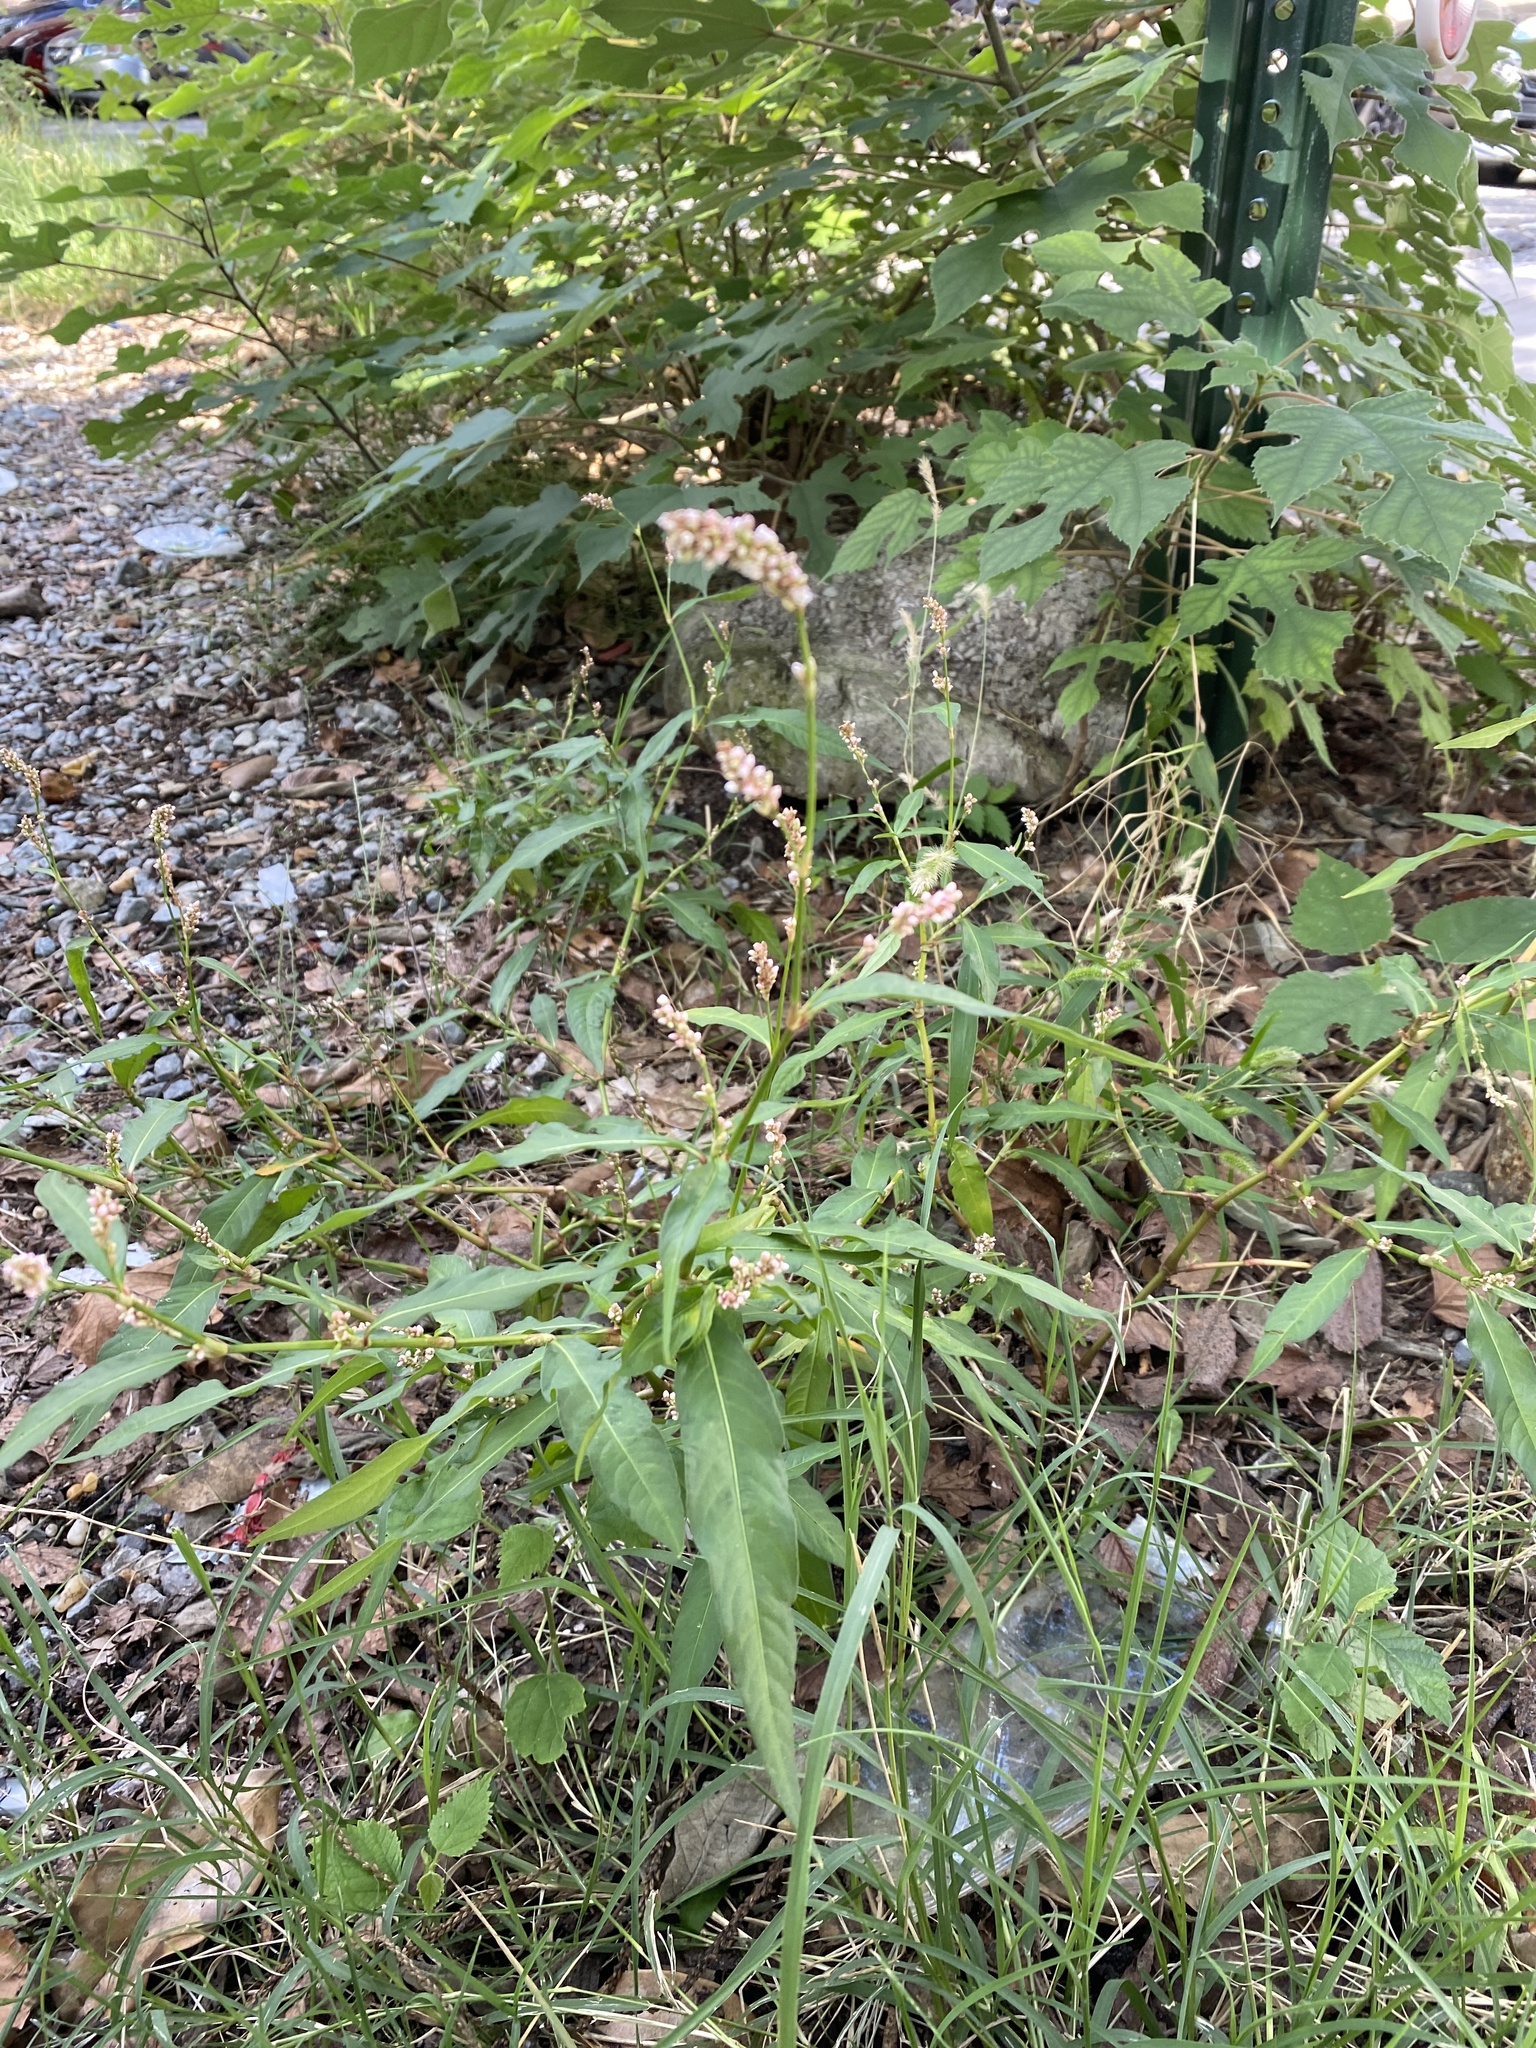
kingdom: Plantae
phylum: Tracheophyta
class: Magnoliopsida
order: Caryophyllales
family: Polygonaceae
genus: Persicaria
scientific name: Persicaria lapathifolia
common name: Curlytop knotweed
